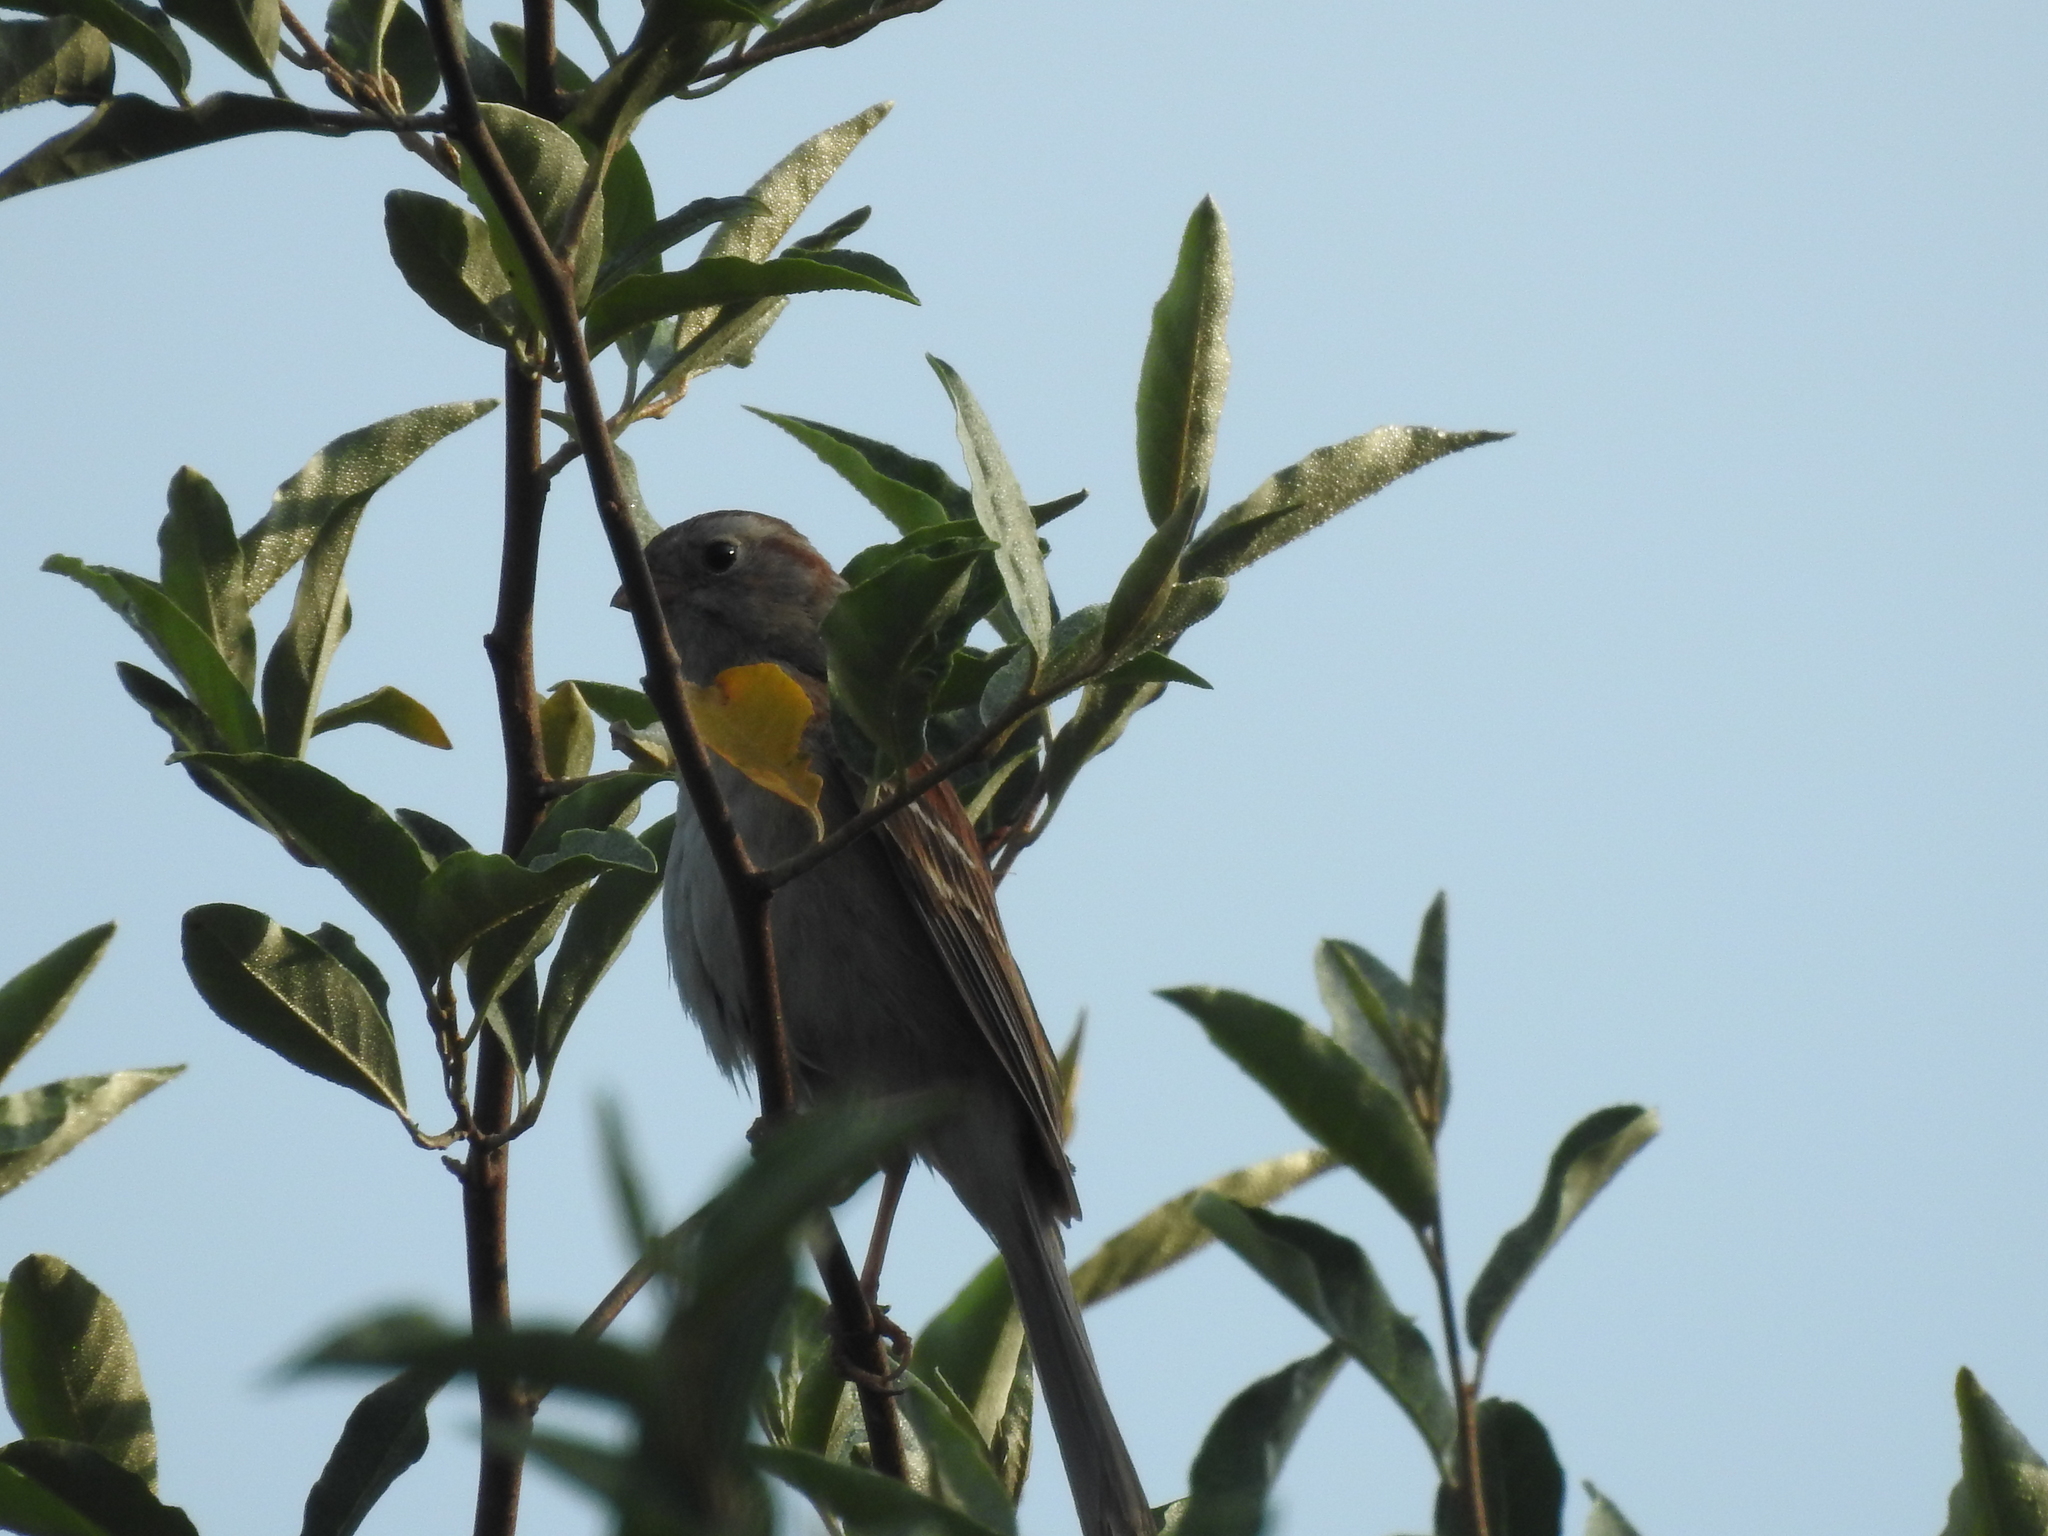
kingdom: Animalia
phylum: Chordata
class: Aves
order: Passeriformes
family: Passerellidae
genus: Spizella
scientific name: Spizella pusilla
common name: Field sparrow
